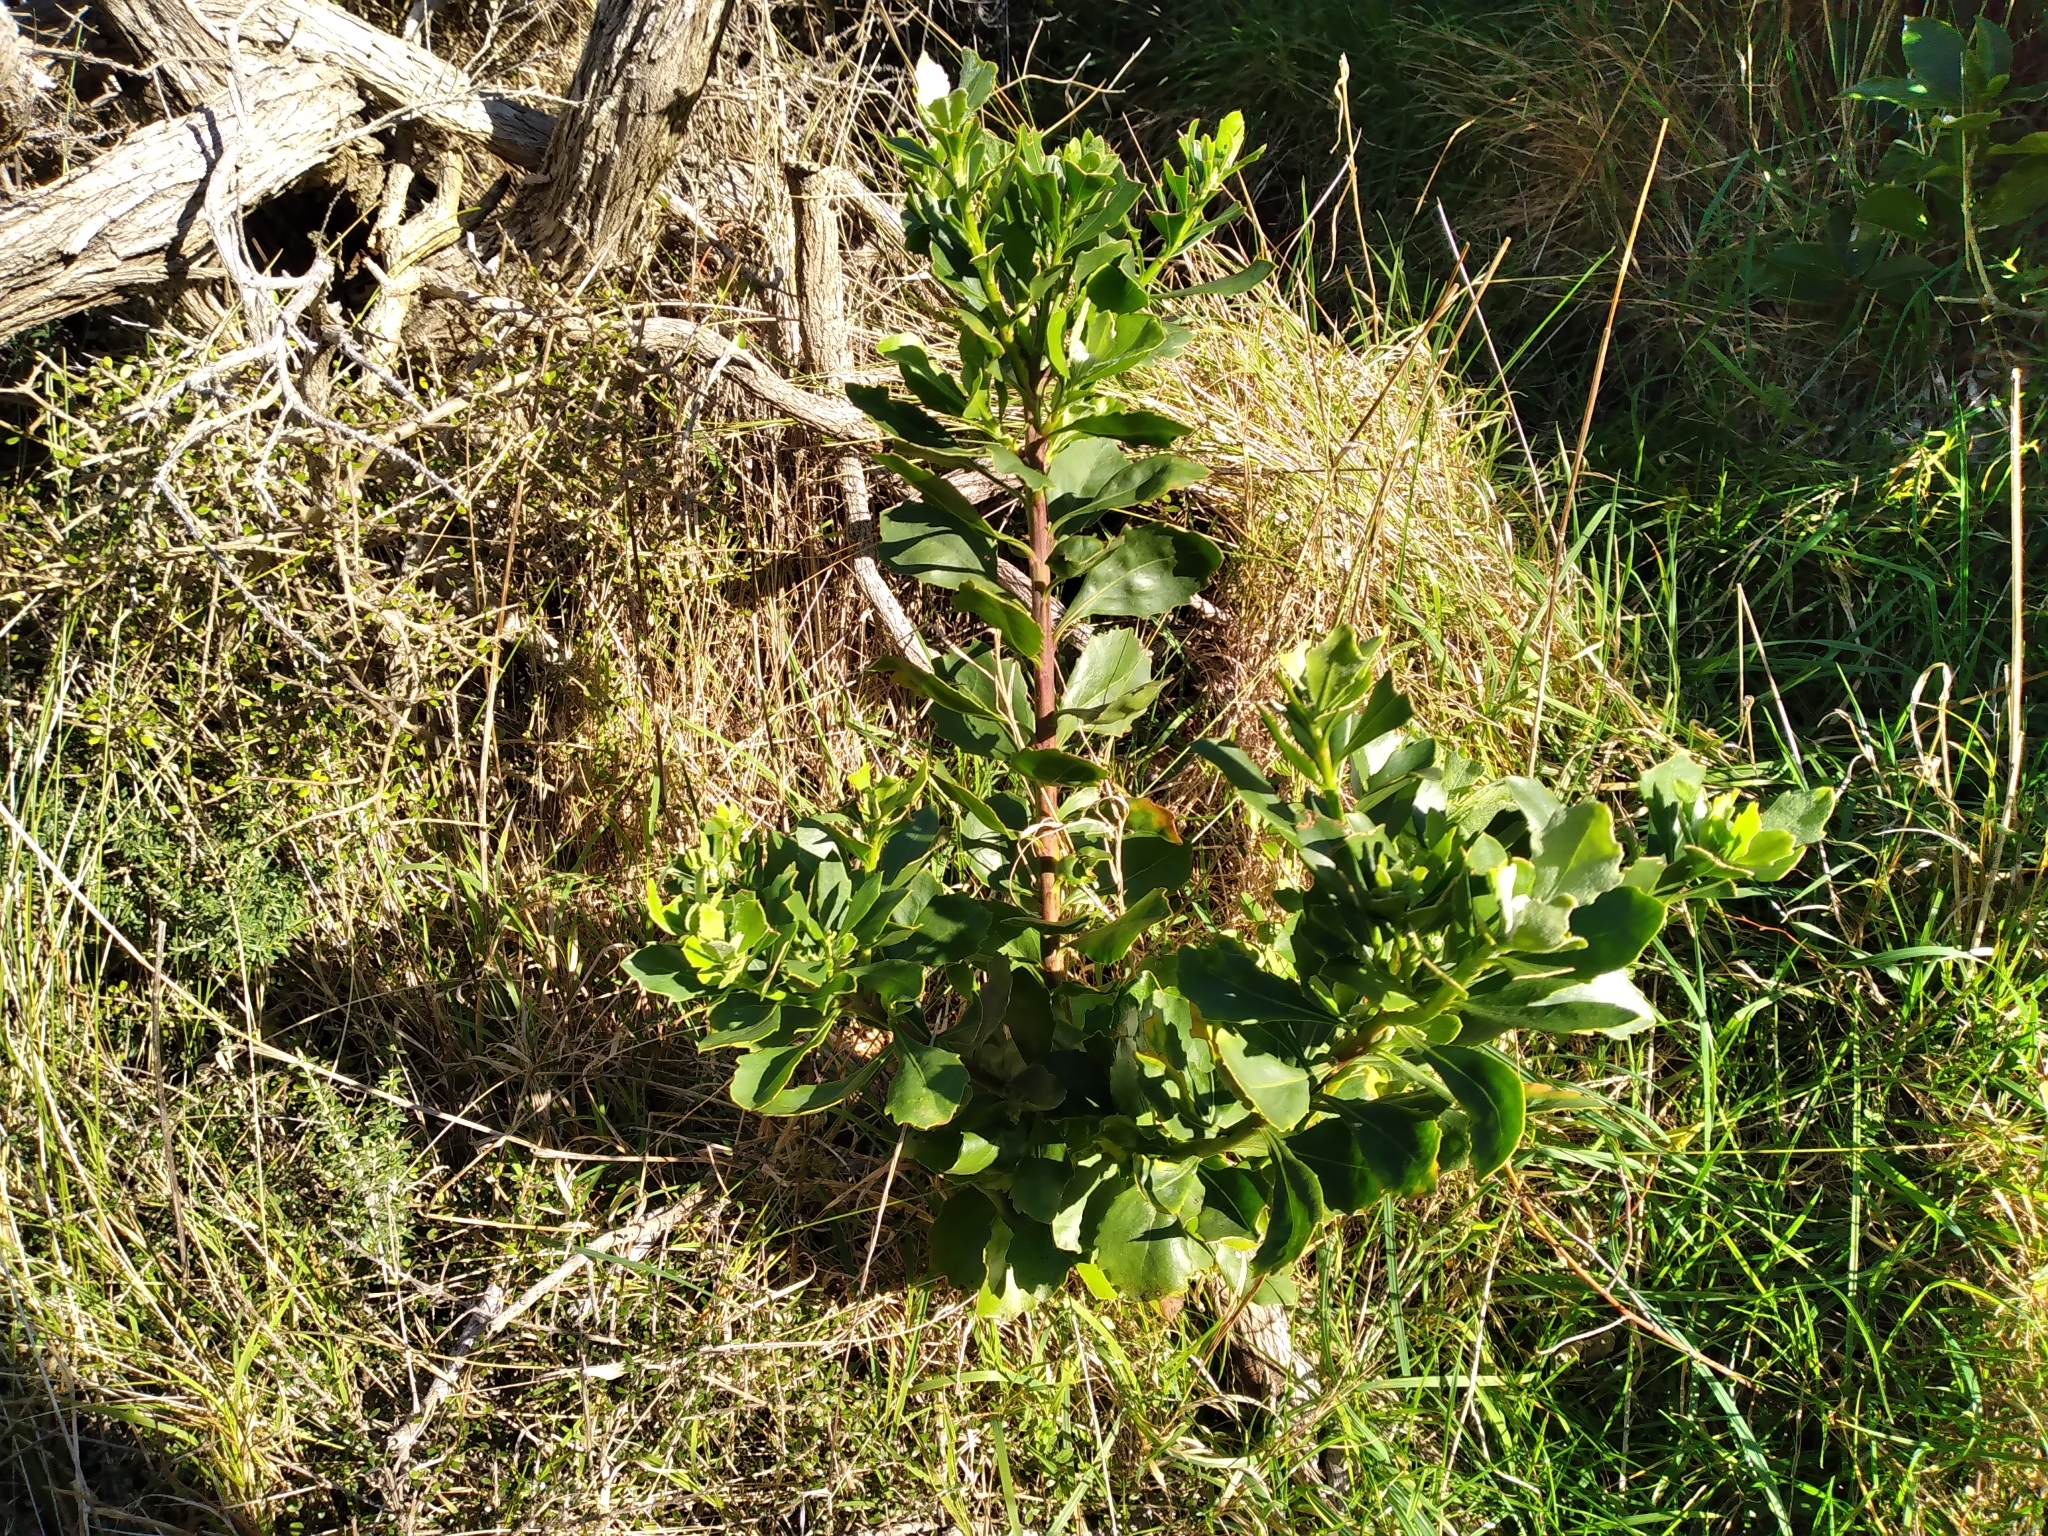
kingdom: Plantae
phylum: Tracheophyta
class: Magnoliopsida
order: Asterales
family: Asteraceae
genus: Osteospermum
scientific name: Osteospermum moniliferum
